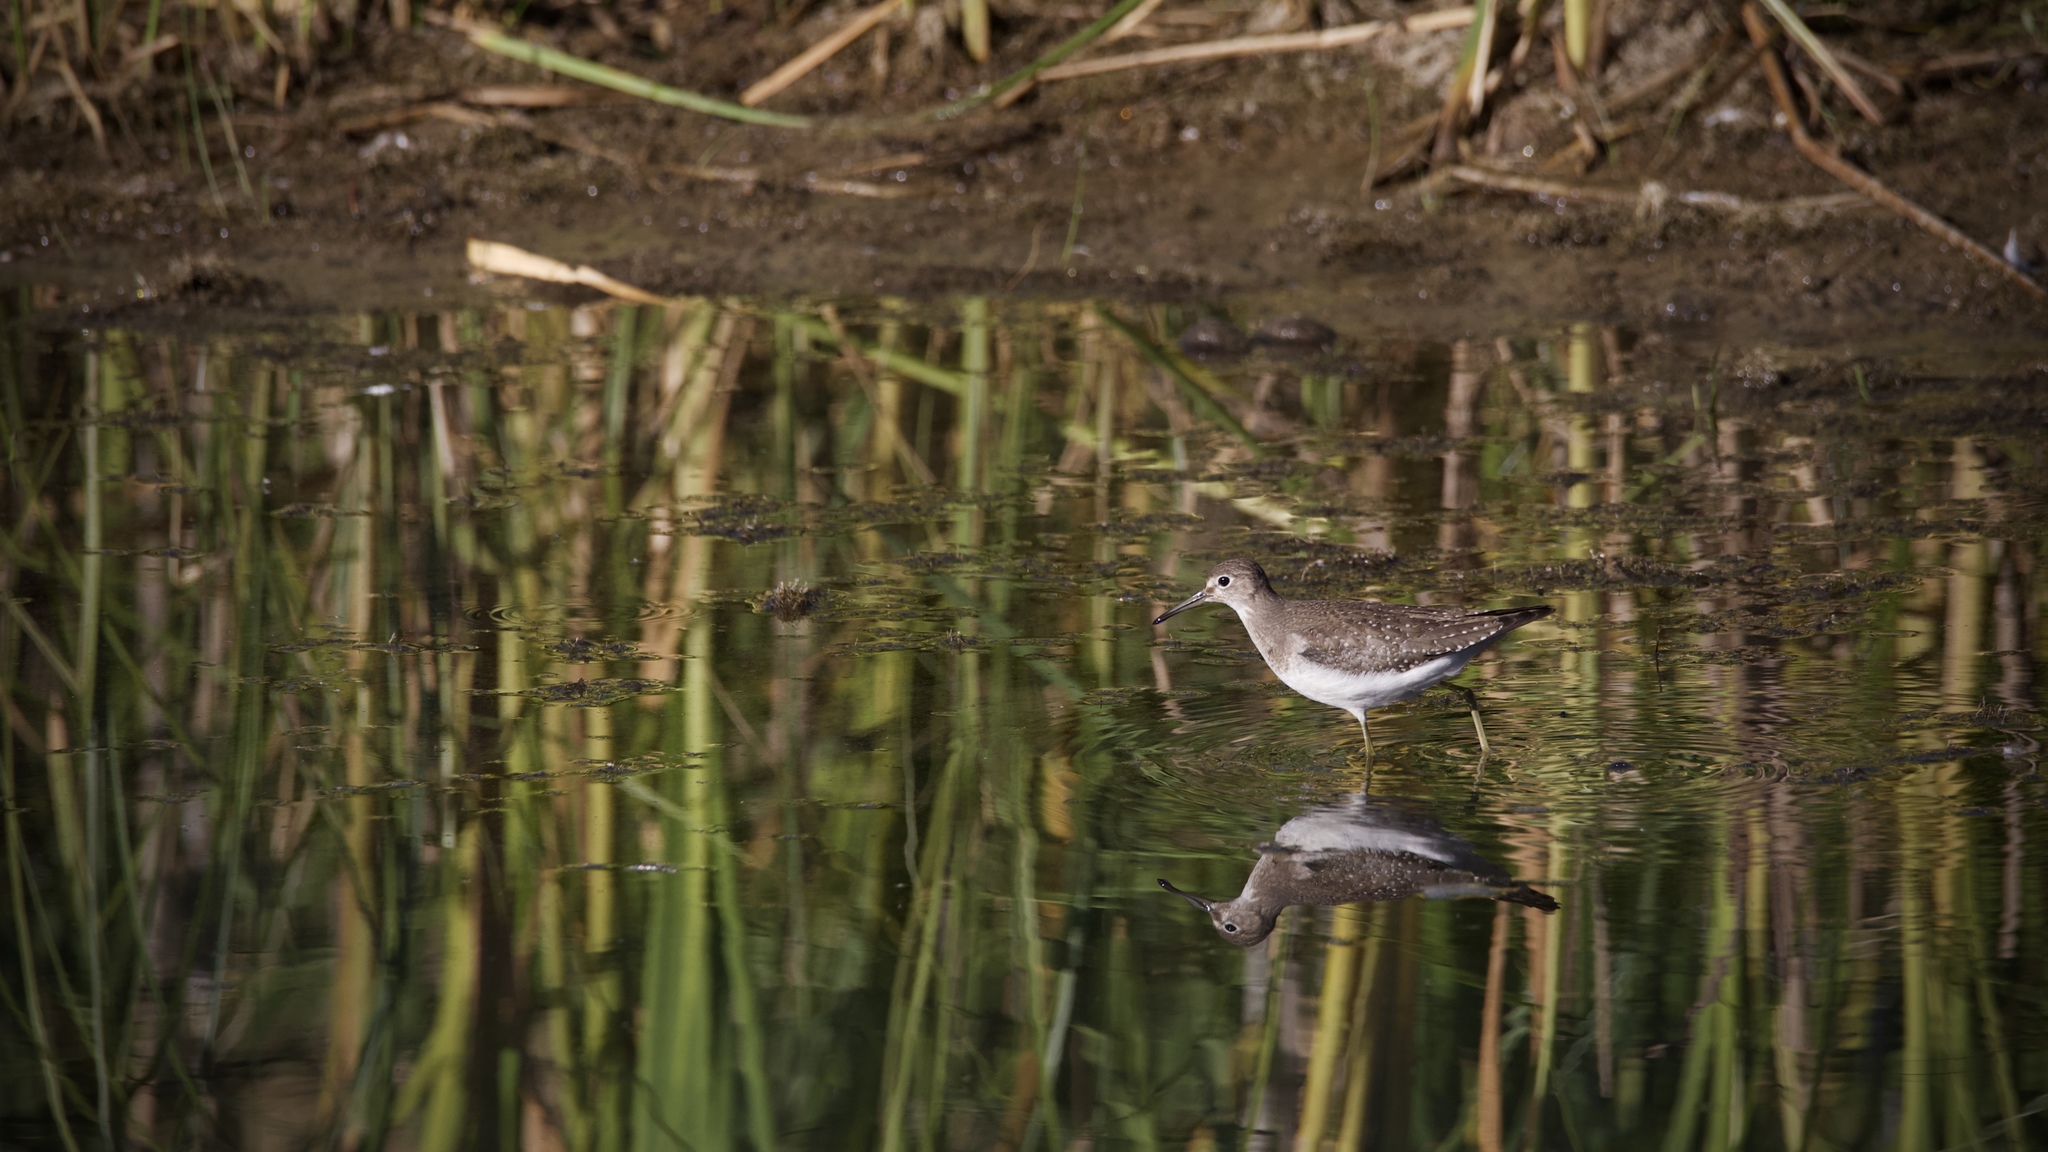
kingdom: Animalia
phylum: Chordata
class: Aves
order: Charadriiformes
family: Scolopacidae
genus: Tringa
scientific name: Tringa solitaria
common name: Solitary sandpiper
